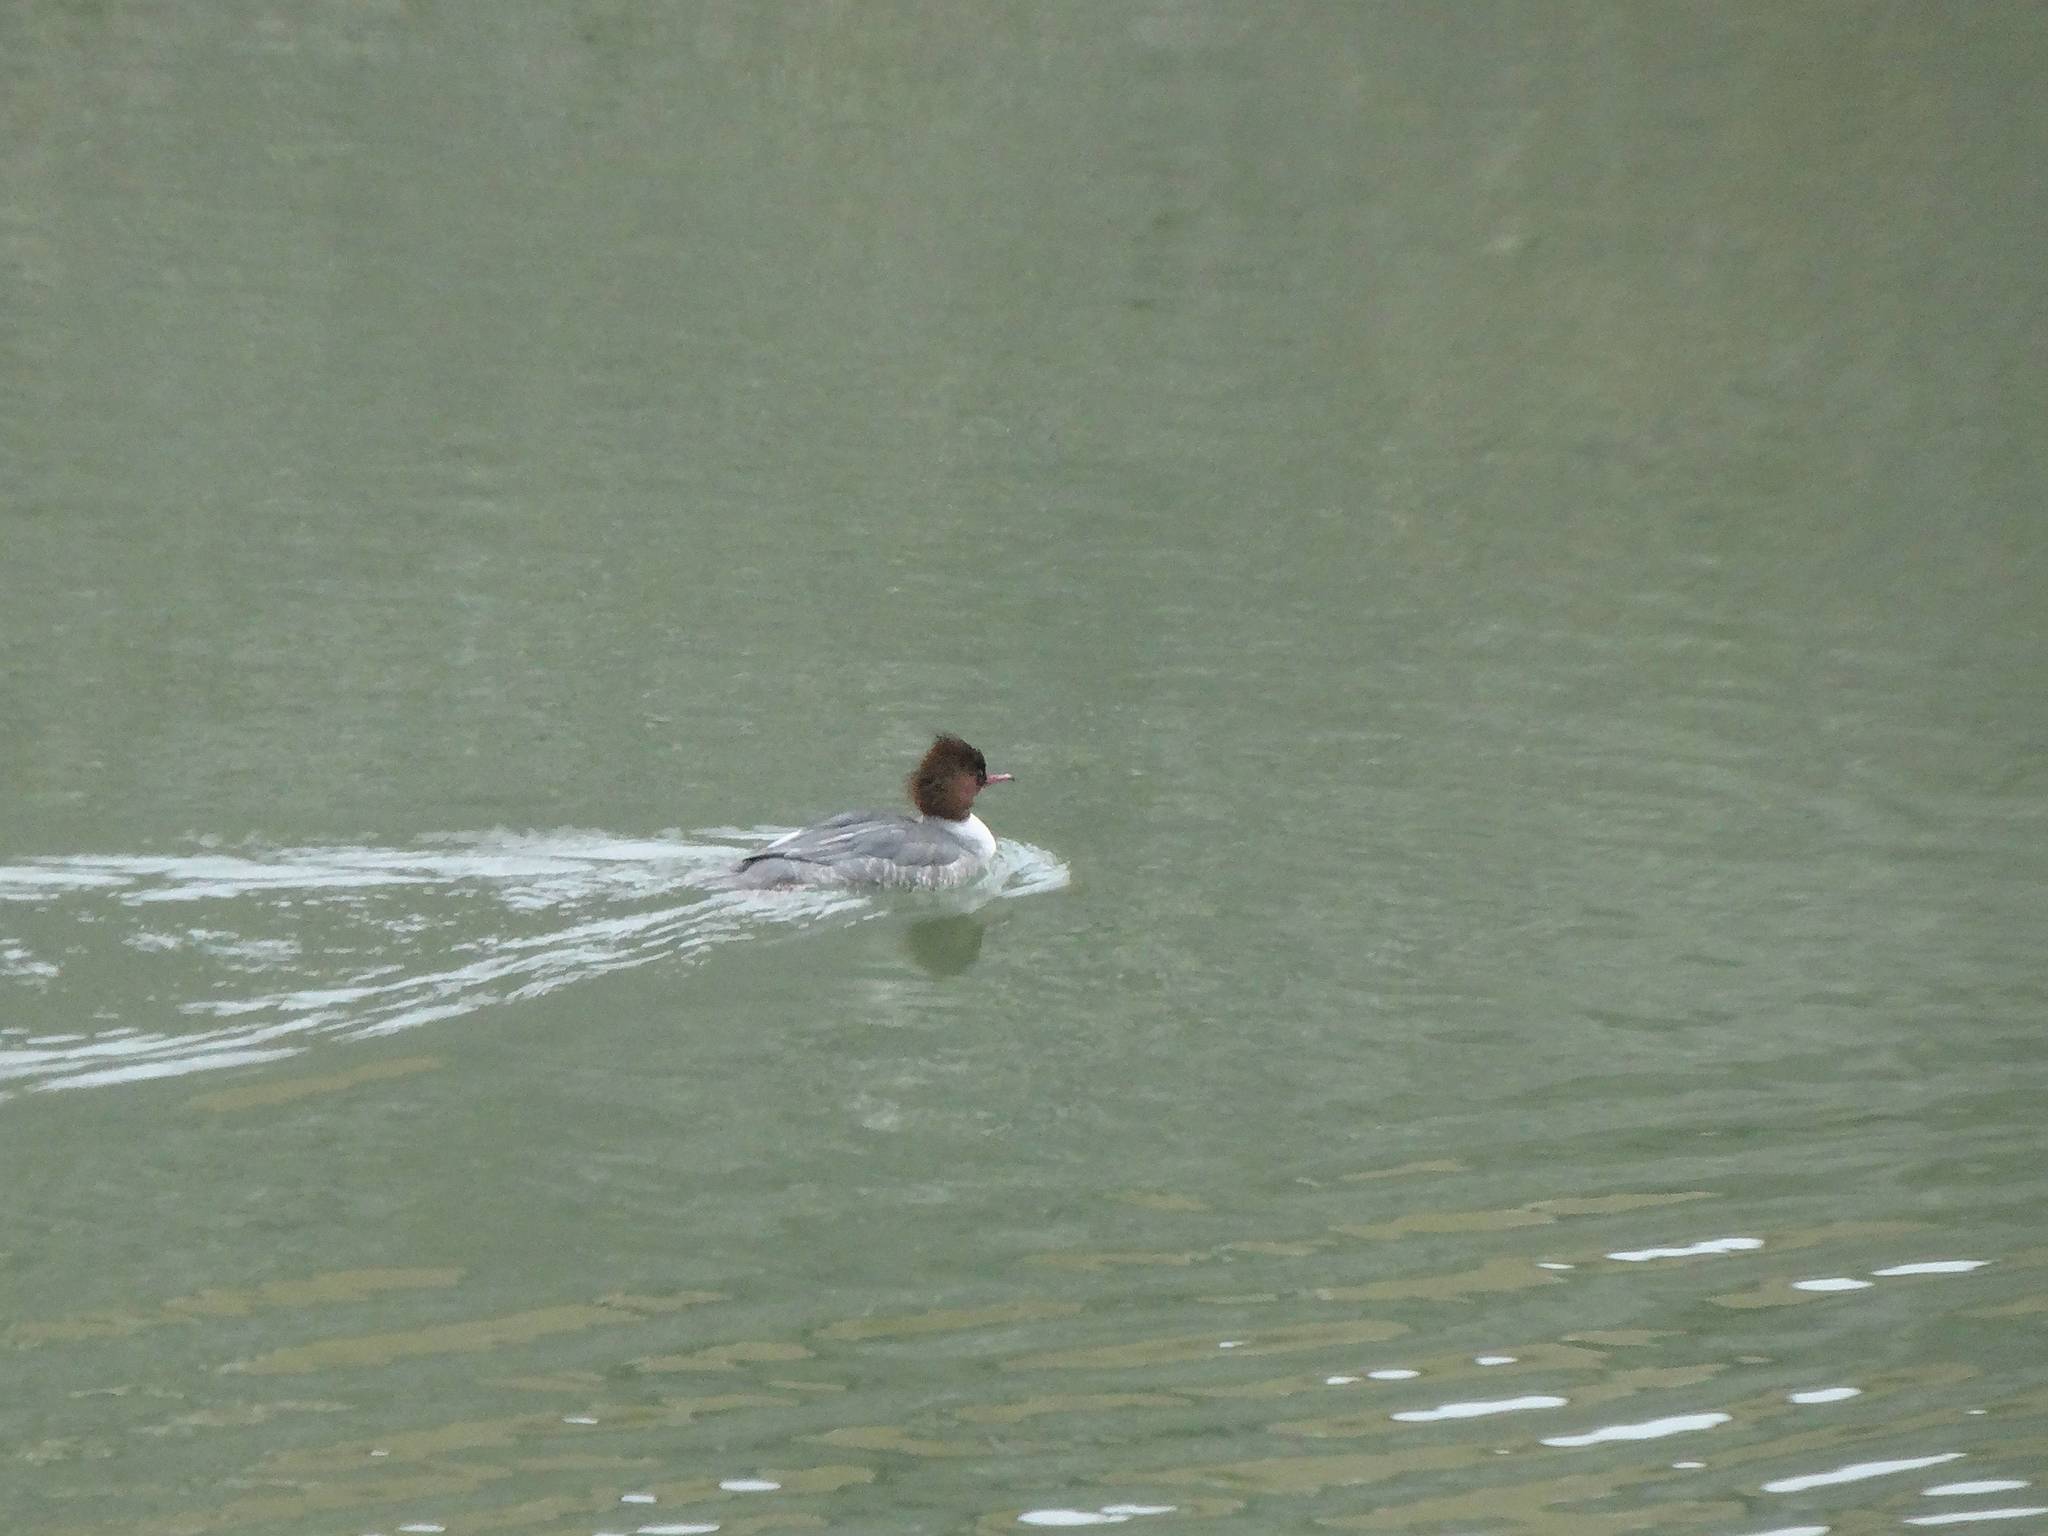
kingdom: Animalia
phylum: Chordata
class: Aves
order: Anseriformes
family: Anatidae
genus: Mergus
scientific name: Mergus merganser
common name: Common merganser
